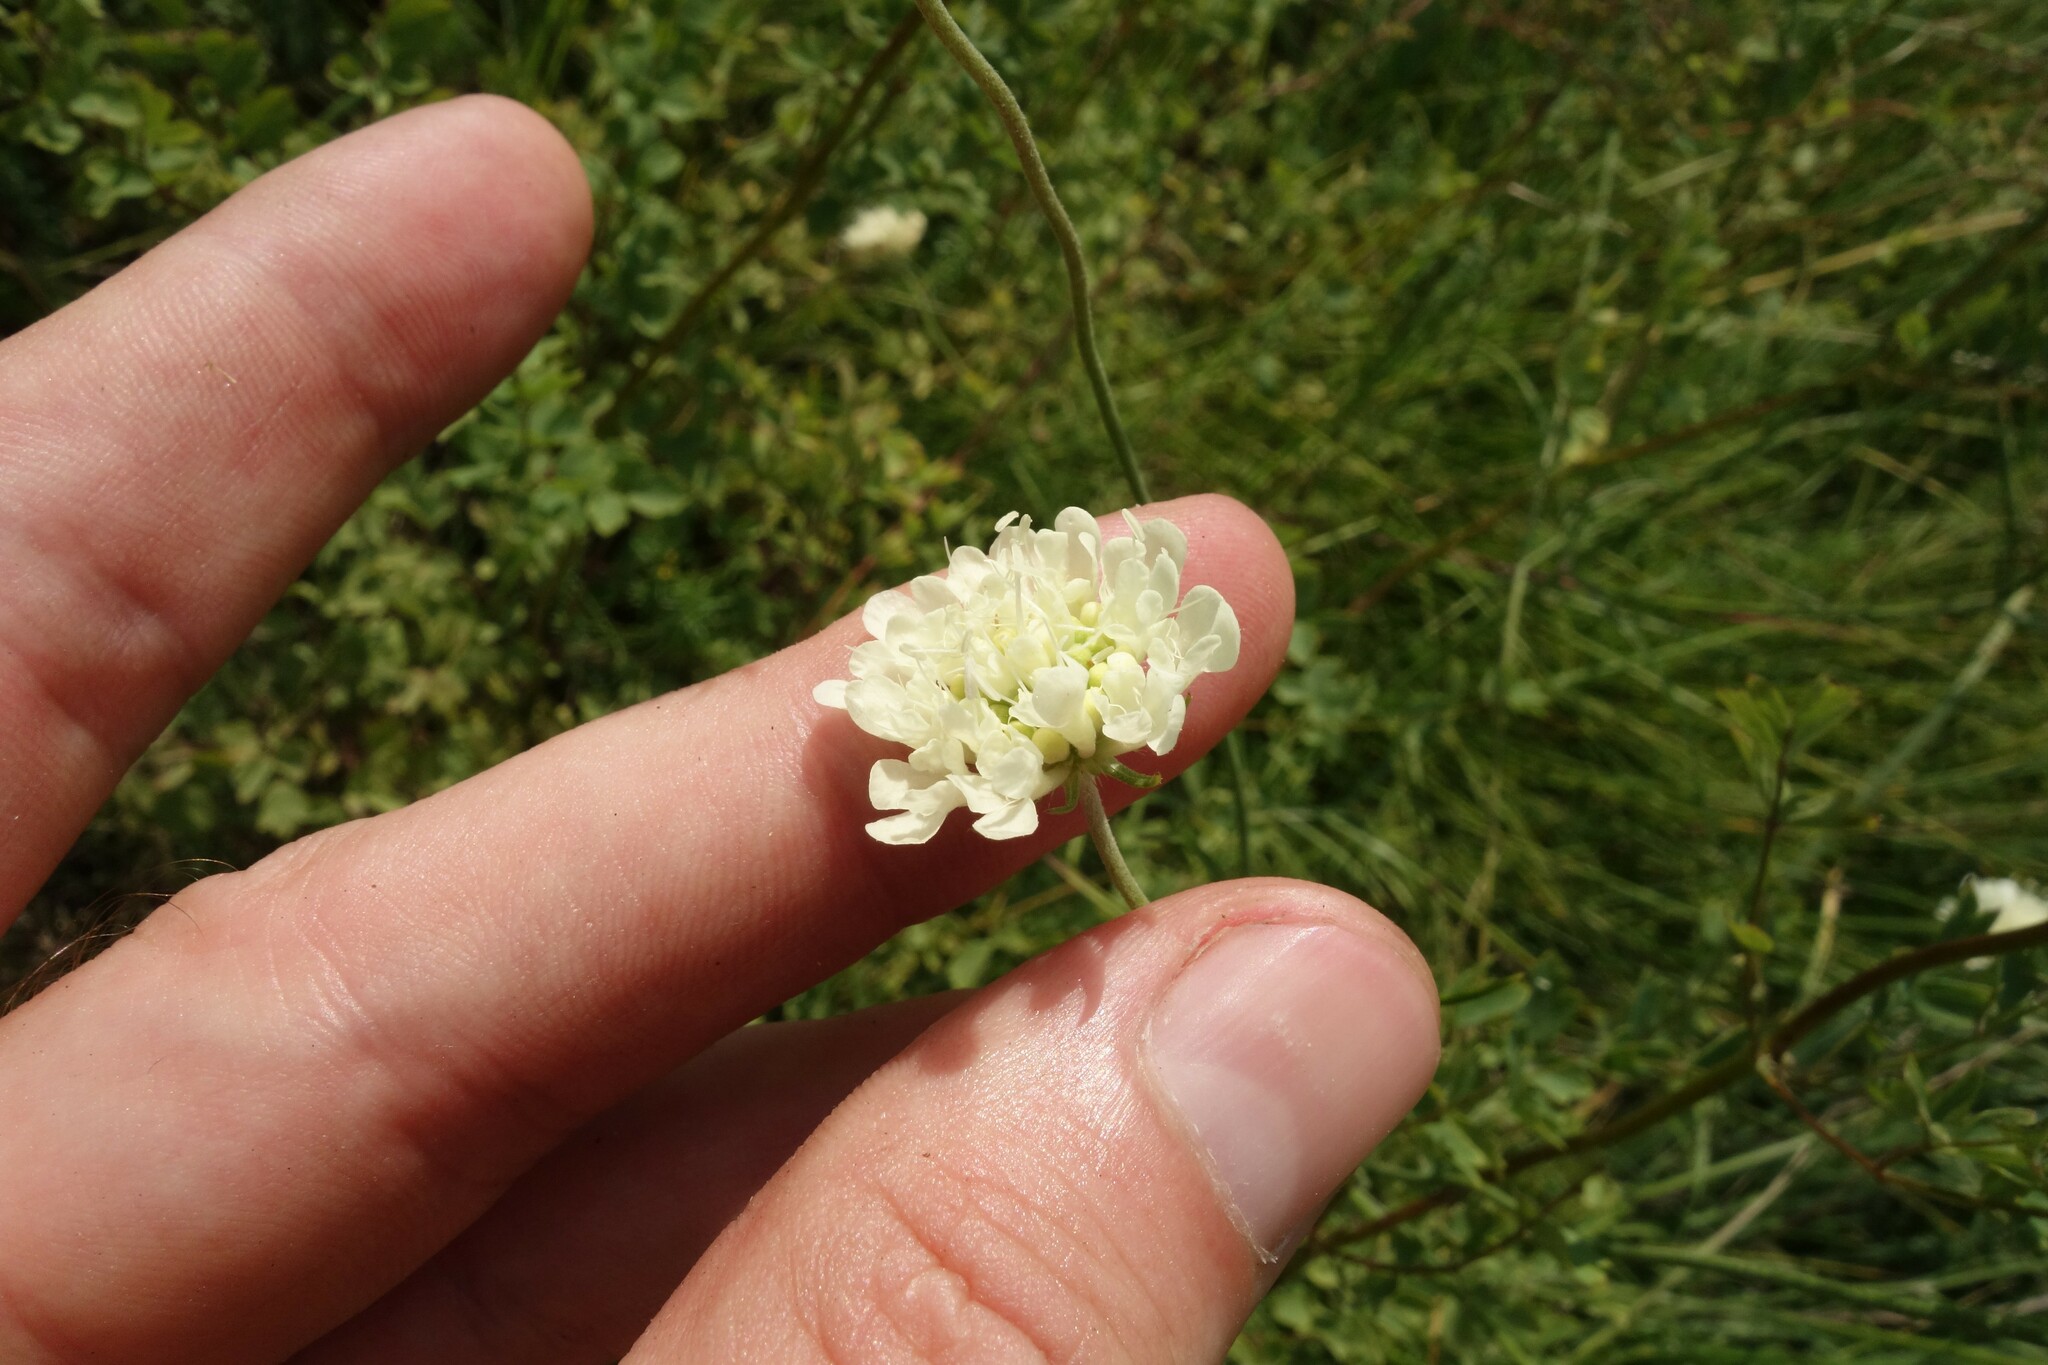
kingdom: Plantae
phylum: Tracheophyta
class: Magnoliopsida
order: Dipsacales
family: Caprifoliaceae
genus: Scabiosa
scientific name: Scabiosa ochroleuca
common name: Cream pincushions
